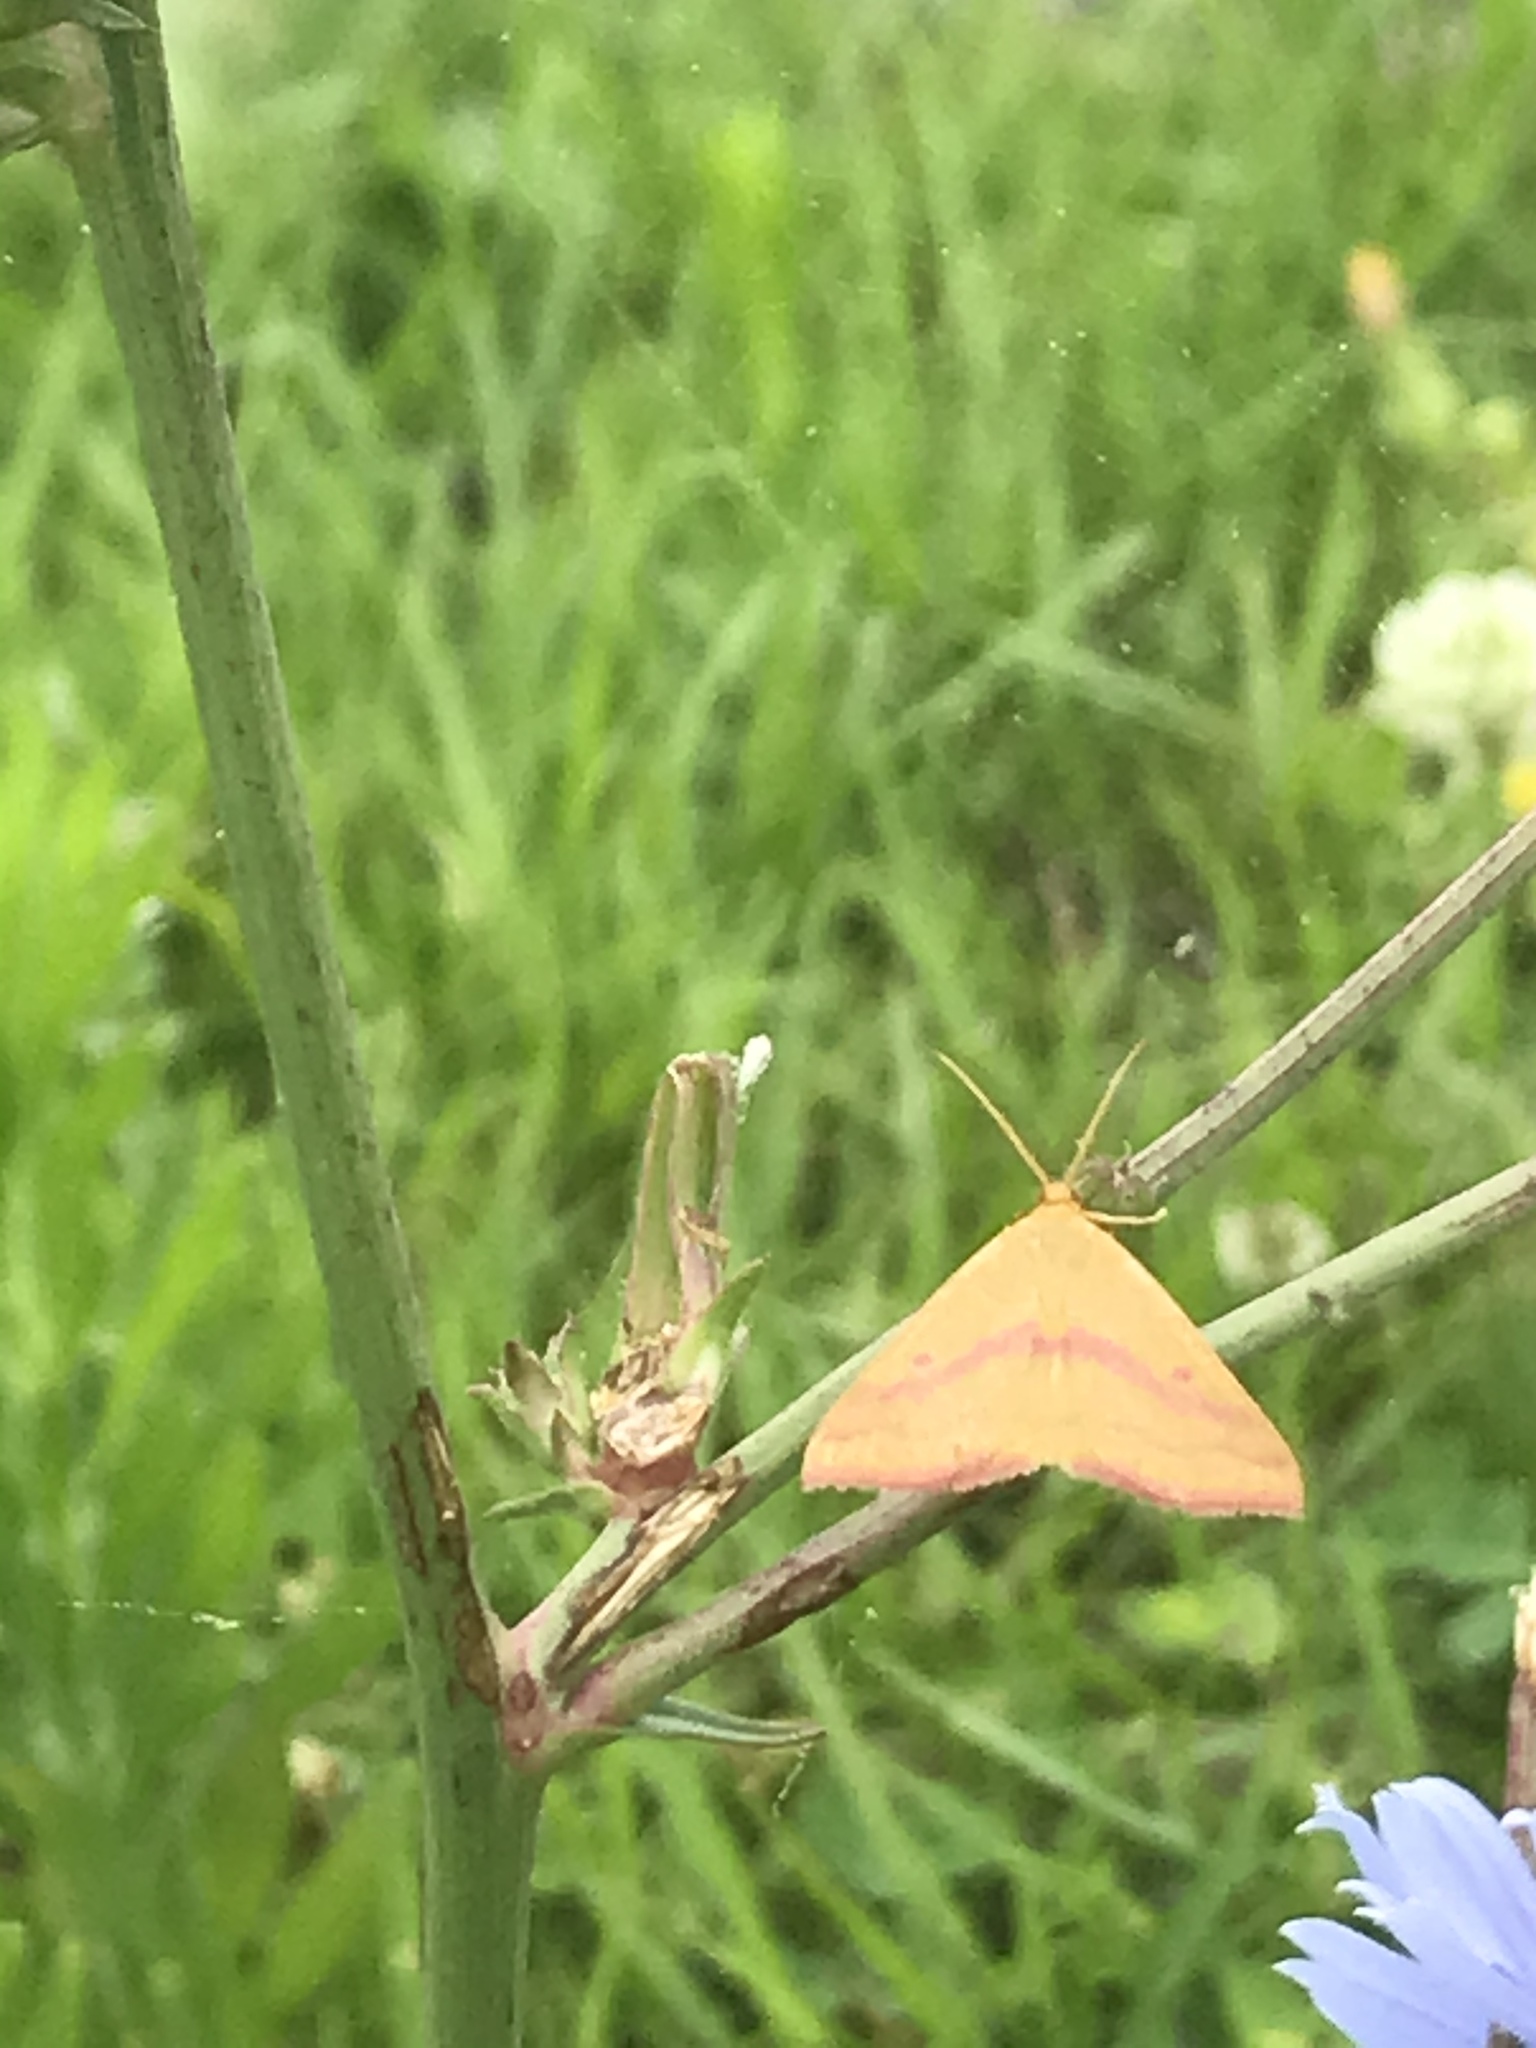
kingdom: Animalia
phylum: Arthropoda
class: Insecta
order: Lepidoptera
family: Geometridae
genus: Haematopis
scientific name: Haematopis grataria
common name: Chickweed geometer
